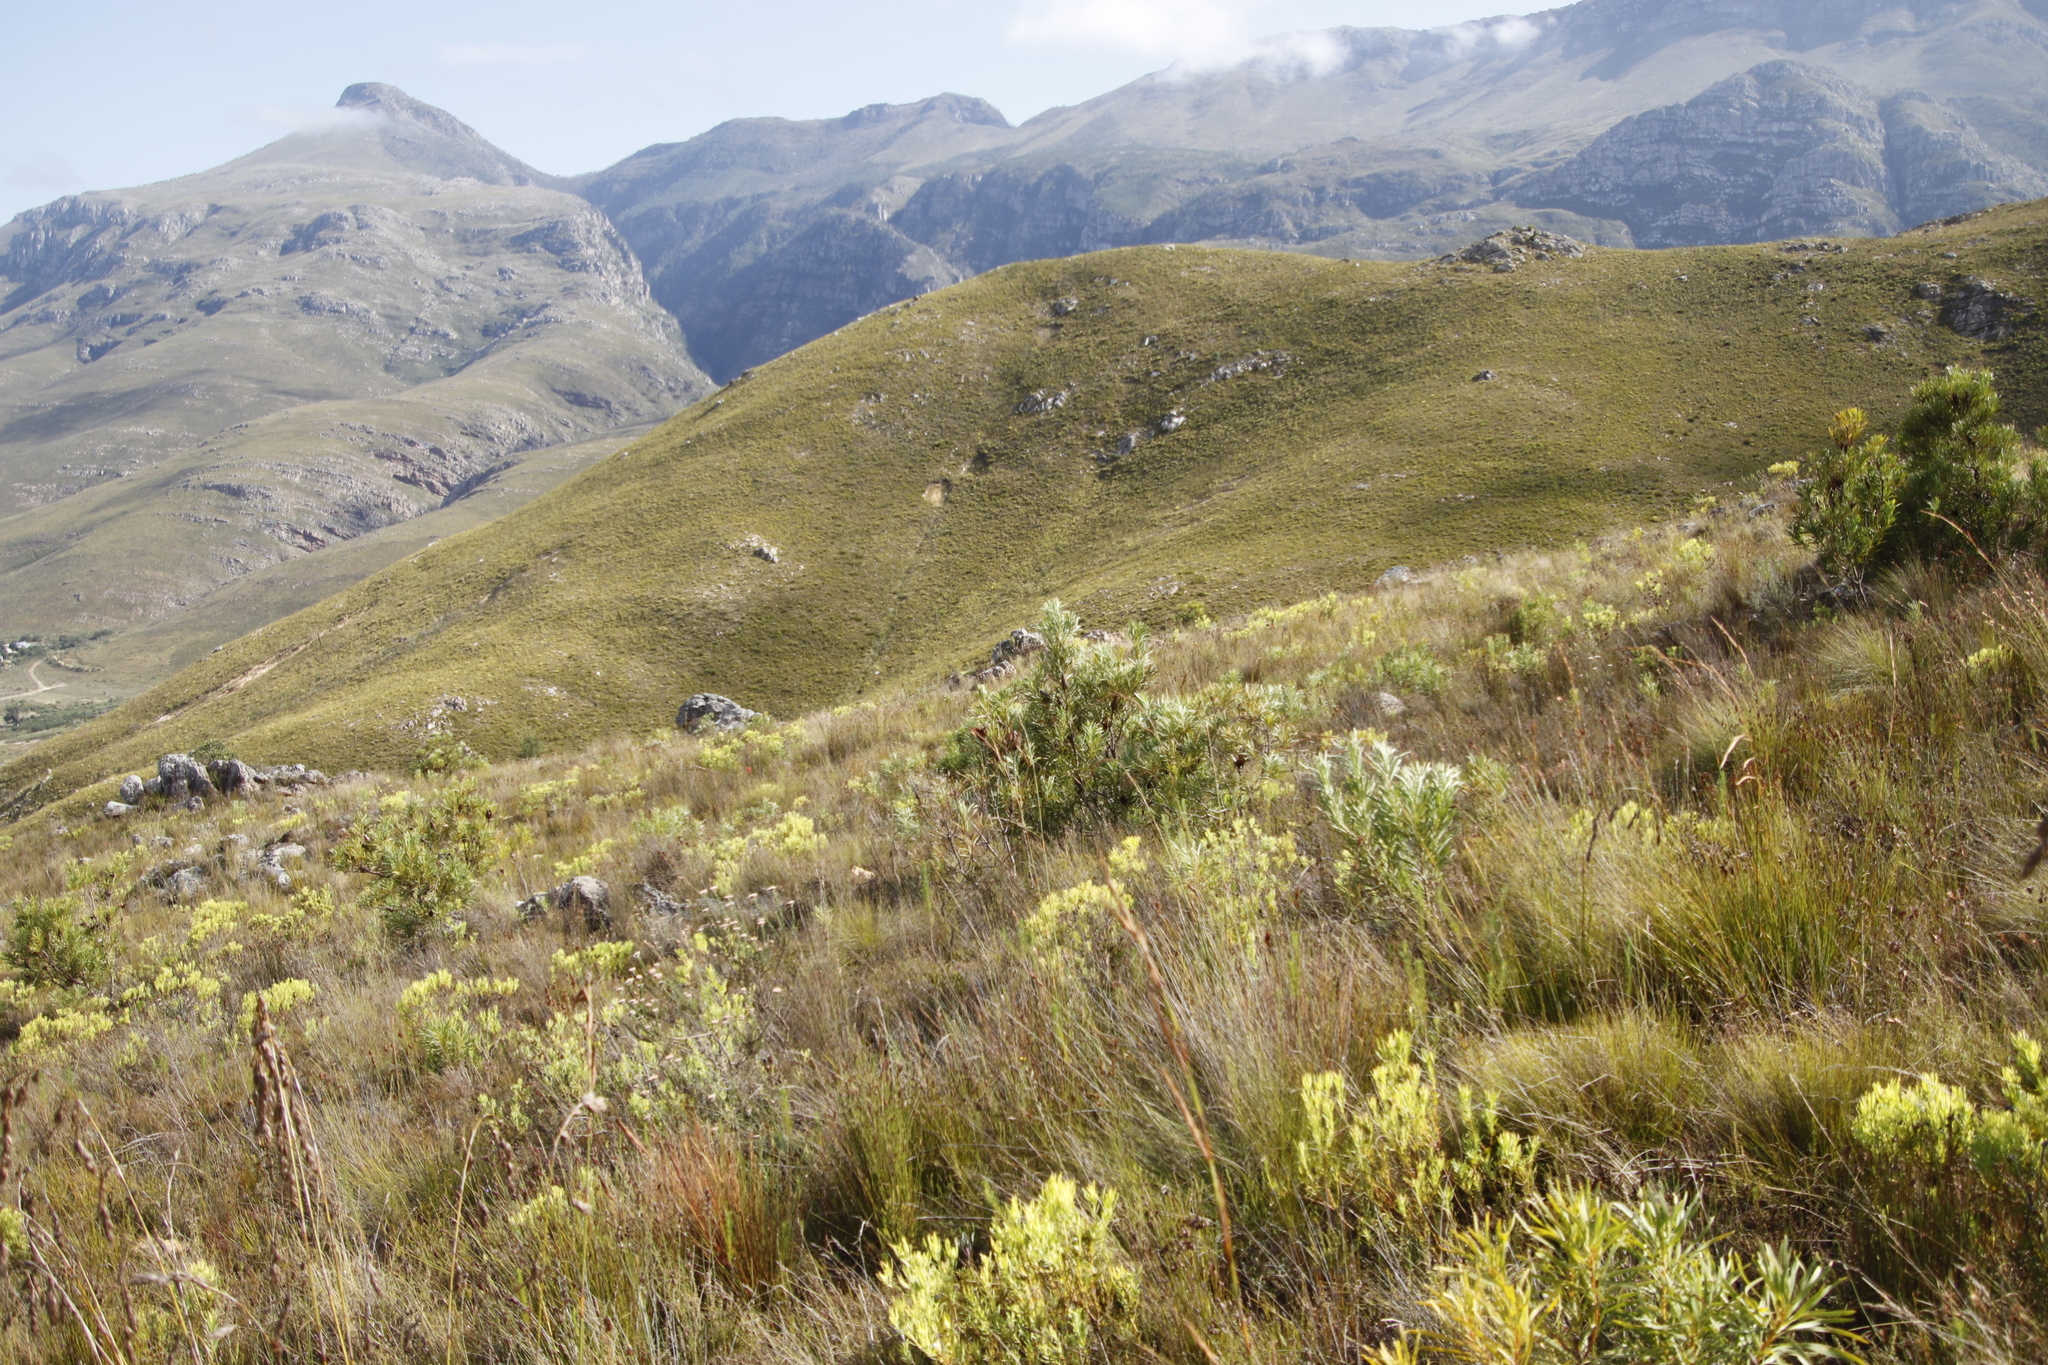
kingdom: Plantae
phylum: Tracheophyta
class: Magnoliopsida
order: Proteales
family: Proteaceae
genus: Protea
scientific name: Protea repens
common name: Sugarbush
